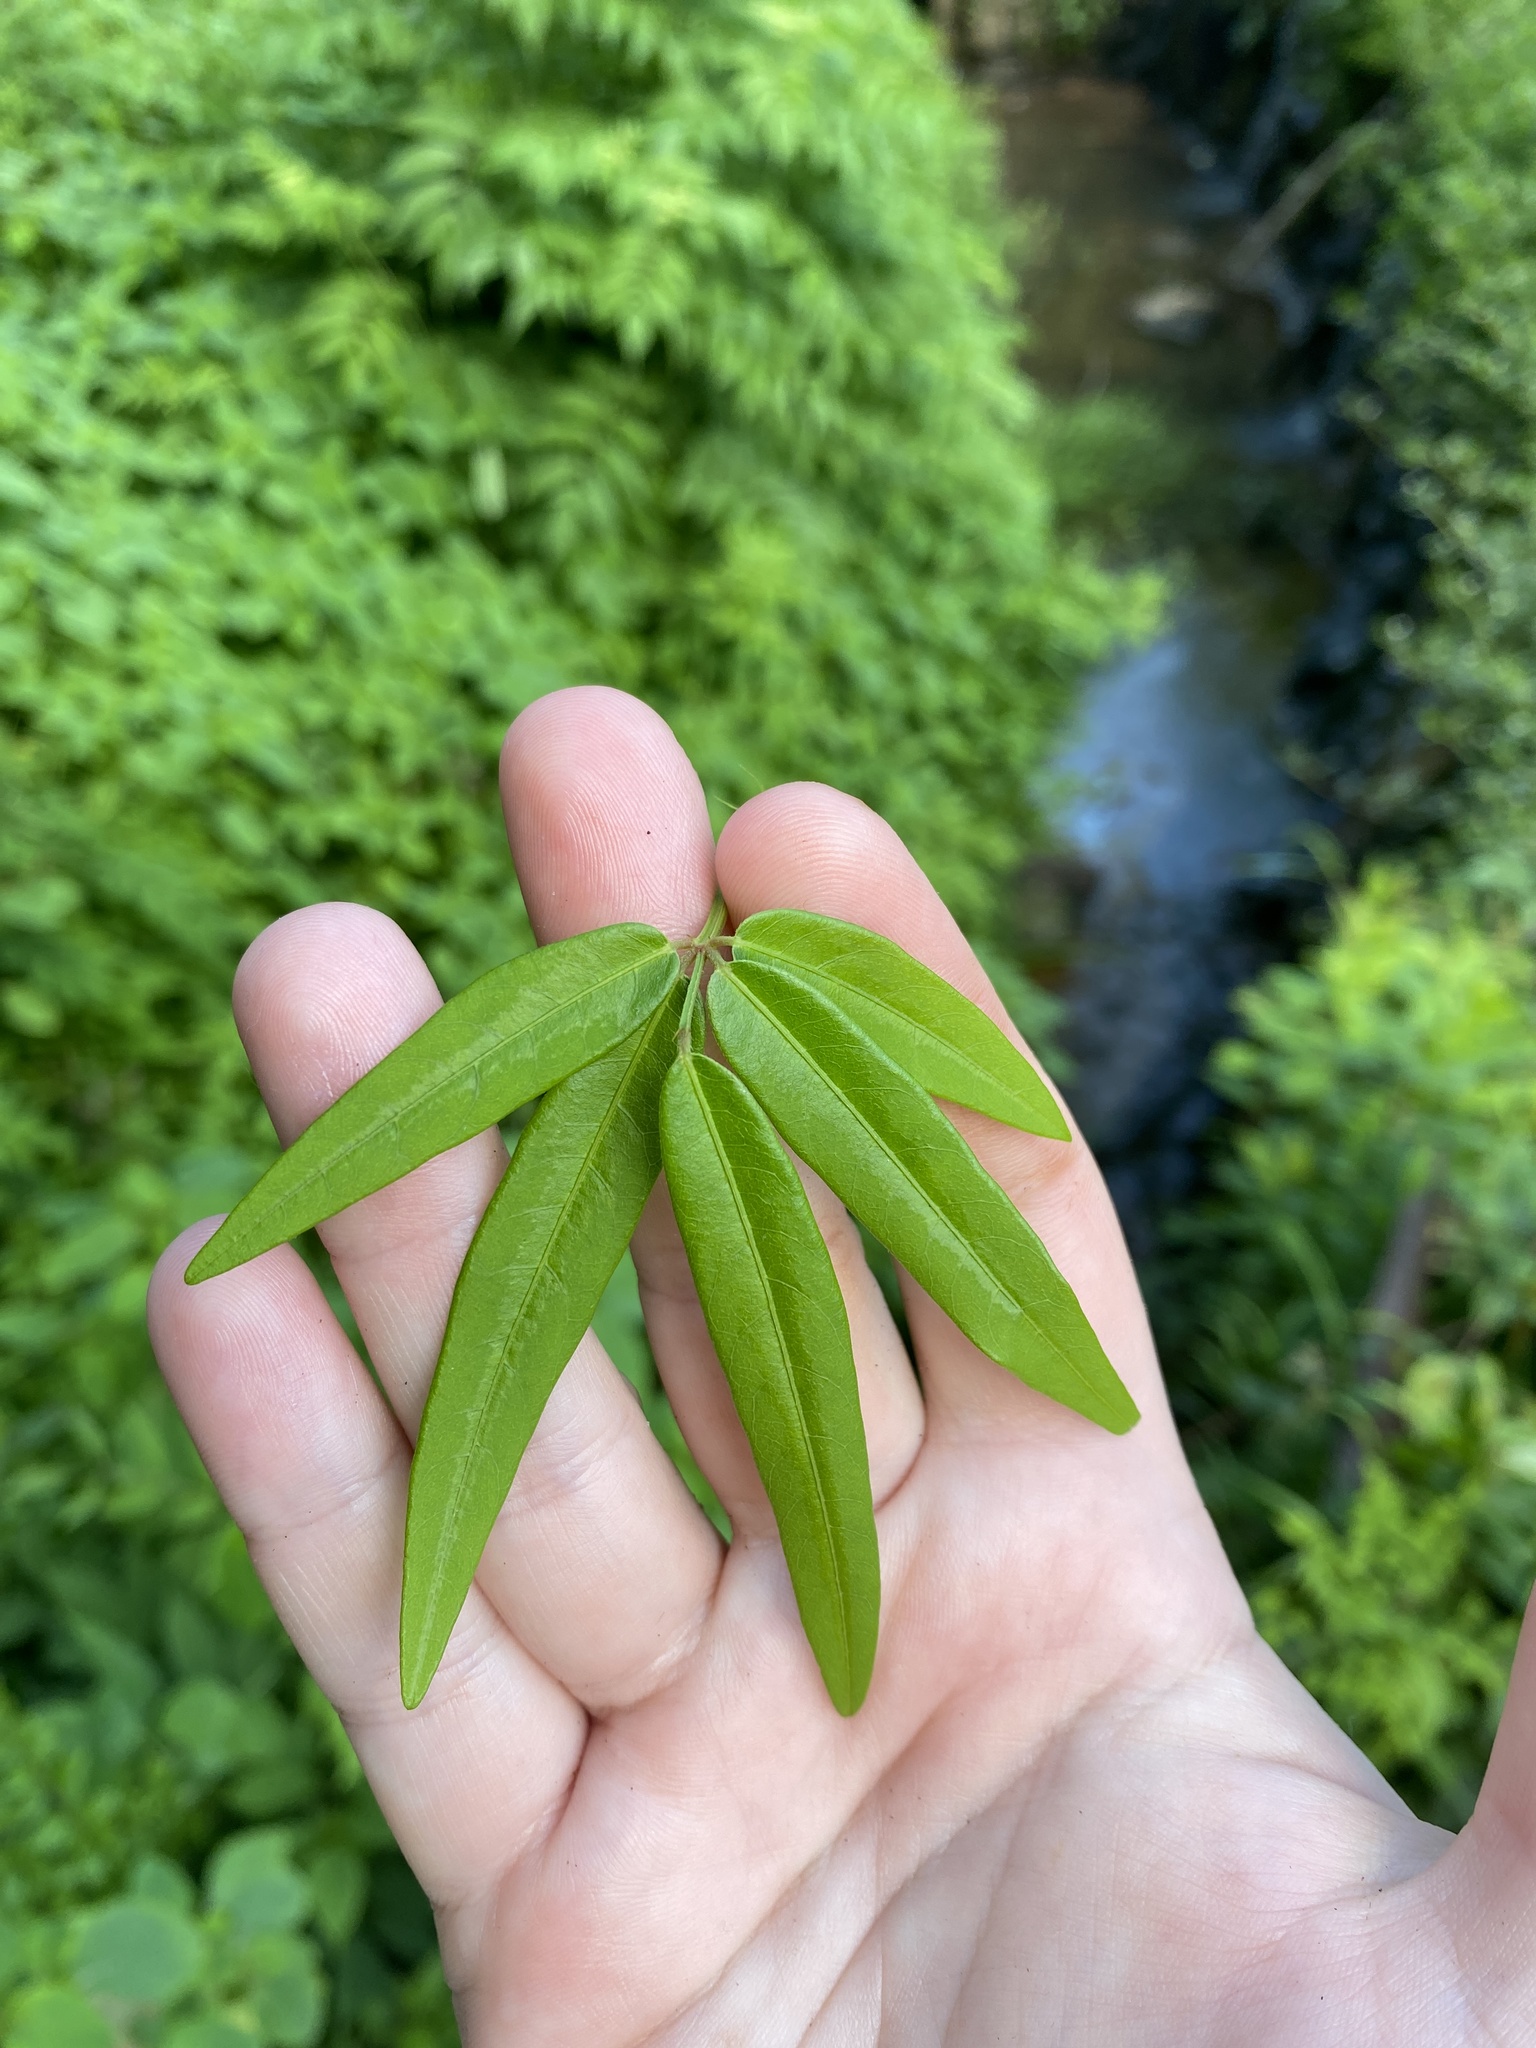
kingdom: Plantae
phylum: Tracheophyta
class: Magnoliopsida
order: Fabales
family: Fabaceae
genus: Desmodium
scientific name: Desmodium paniculatum
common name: Panicled tick-clover
